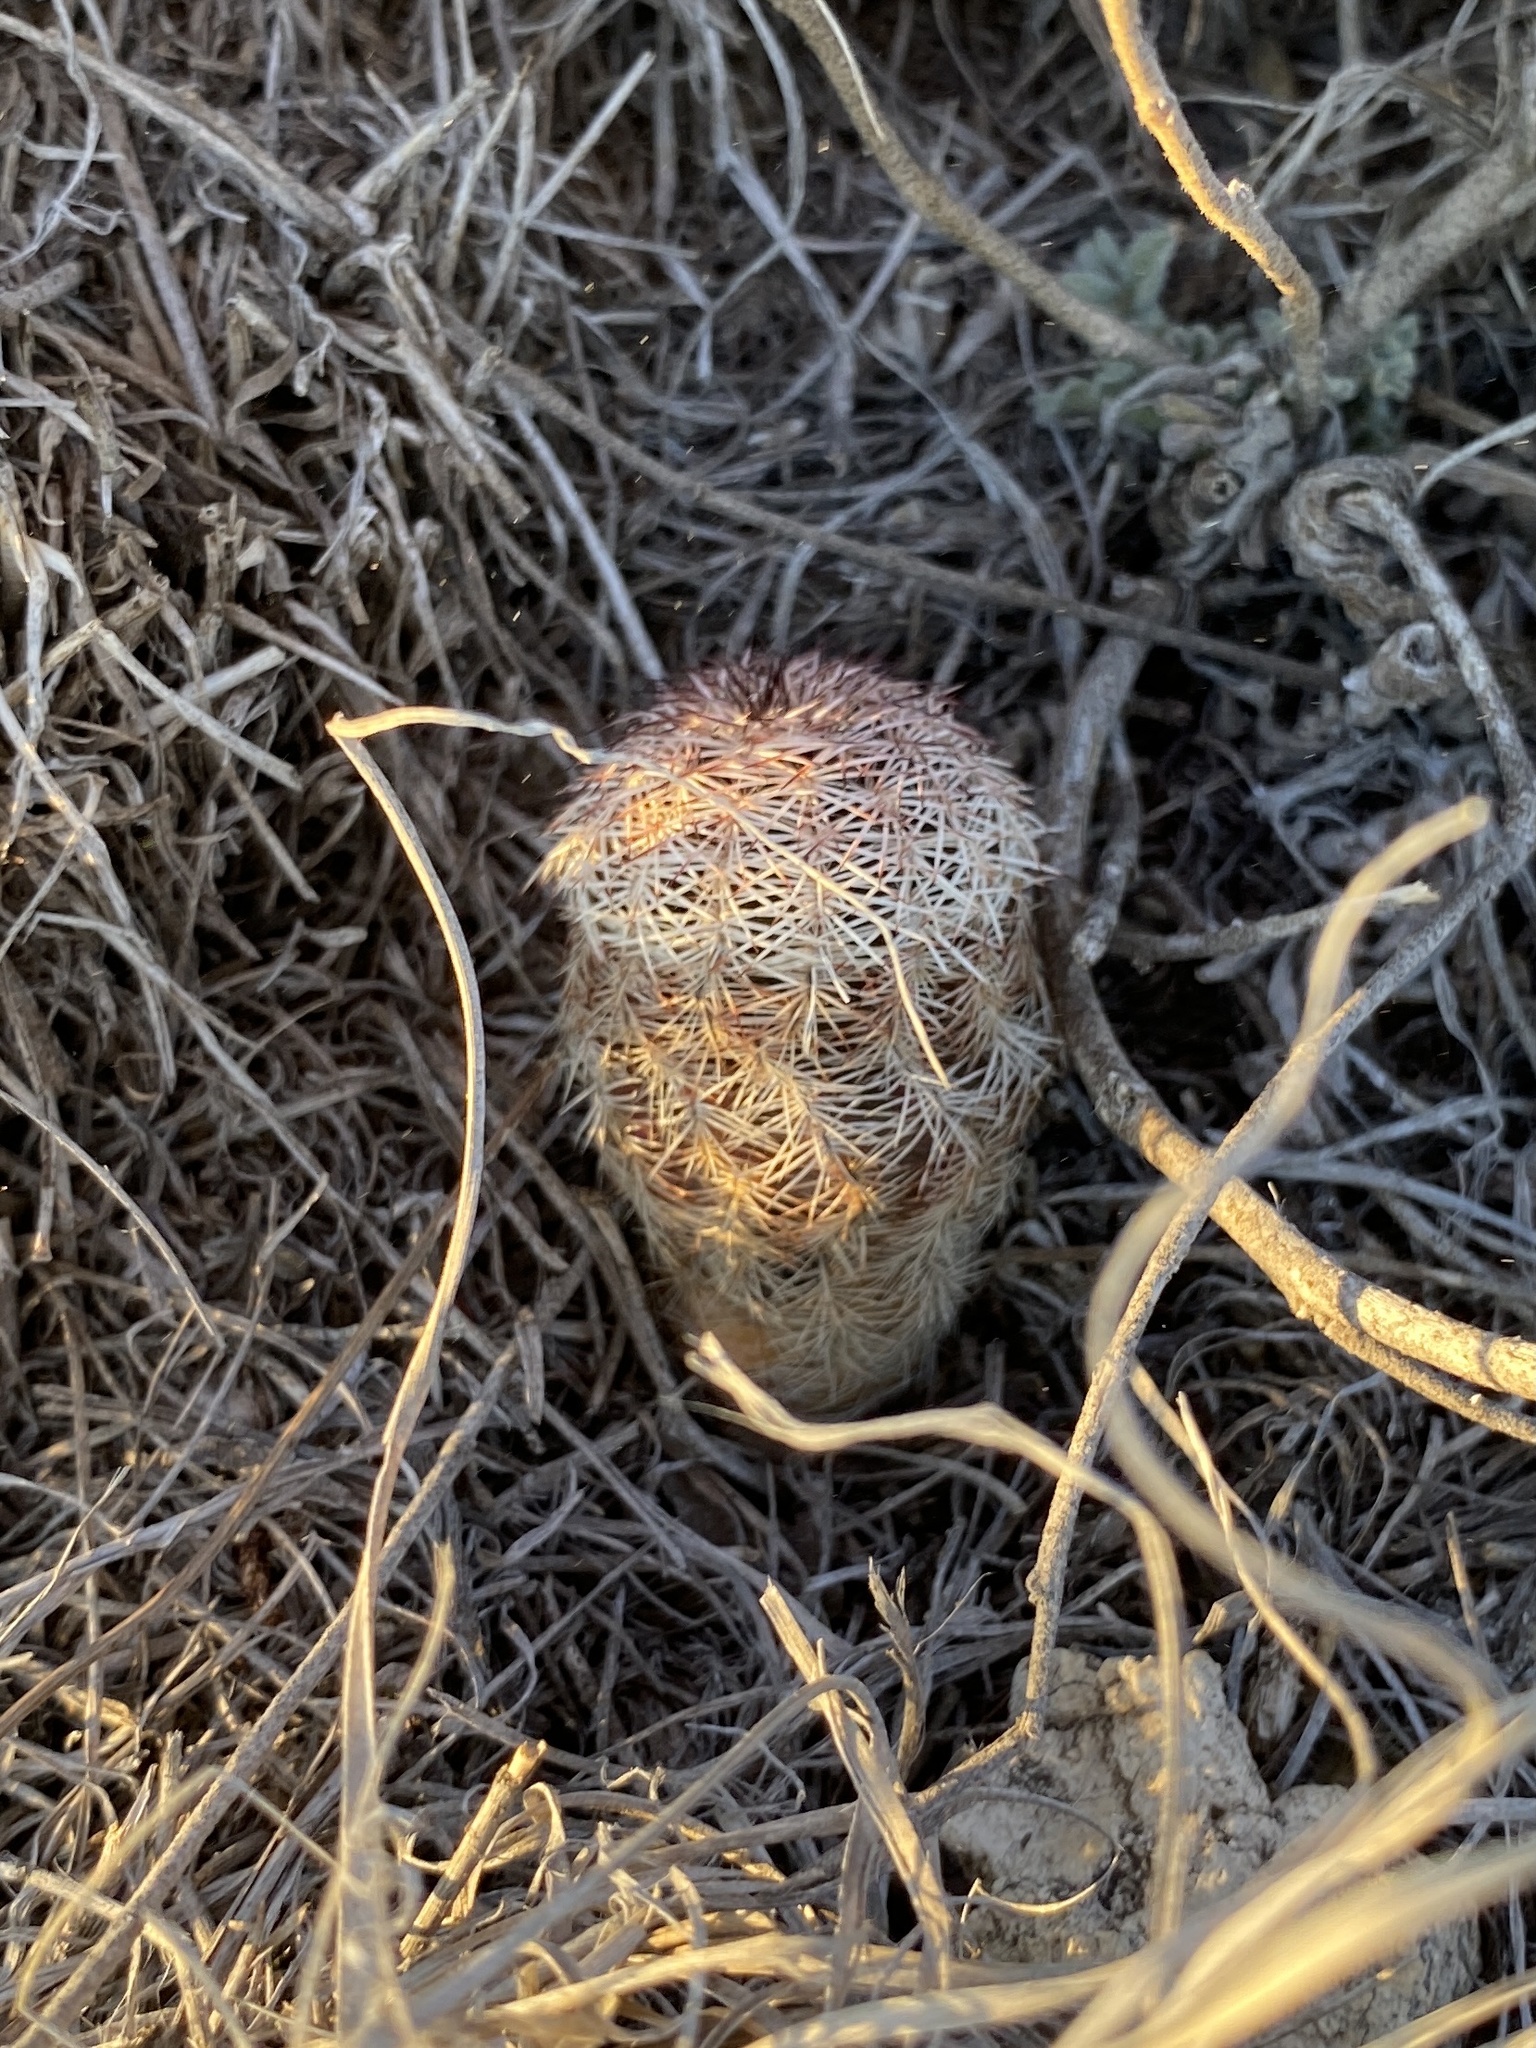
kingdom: Plantae
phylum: Tracheophyta
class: Magnoliopsida
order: Caryophyllales
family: Cactaceae
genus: Echinocereus
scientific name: Echinocereus reichenbachii
